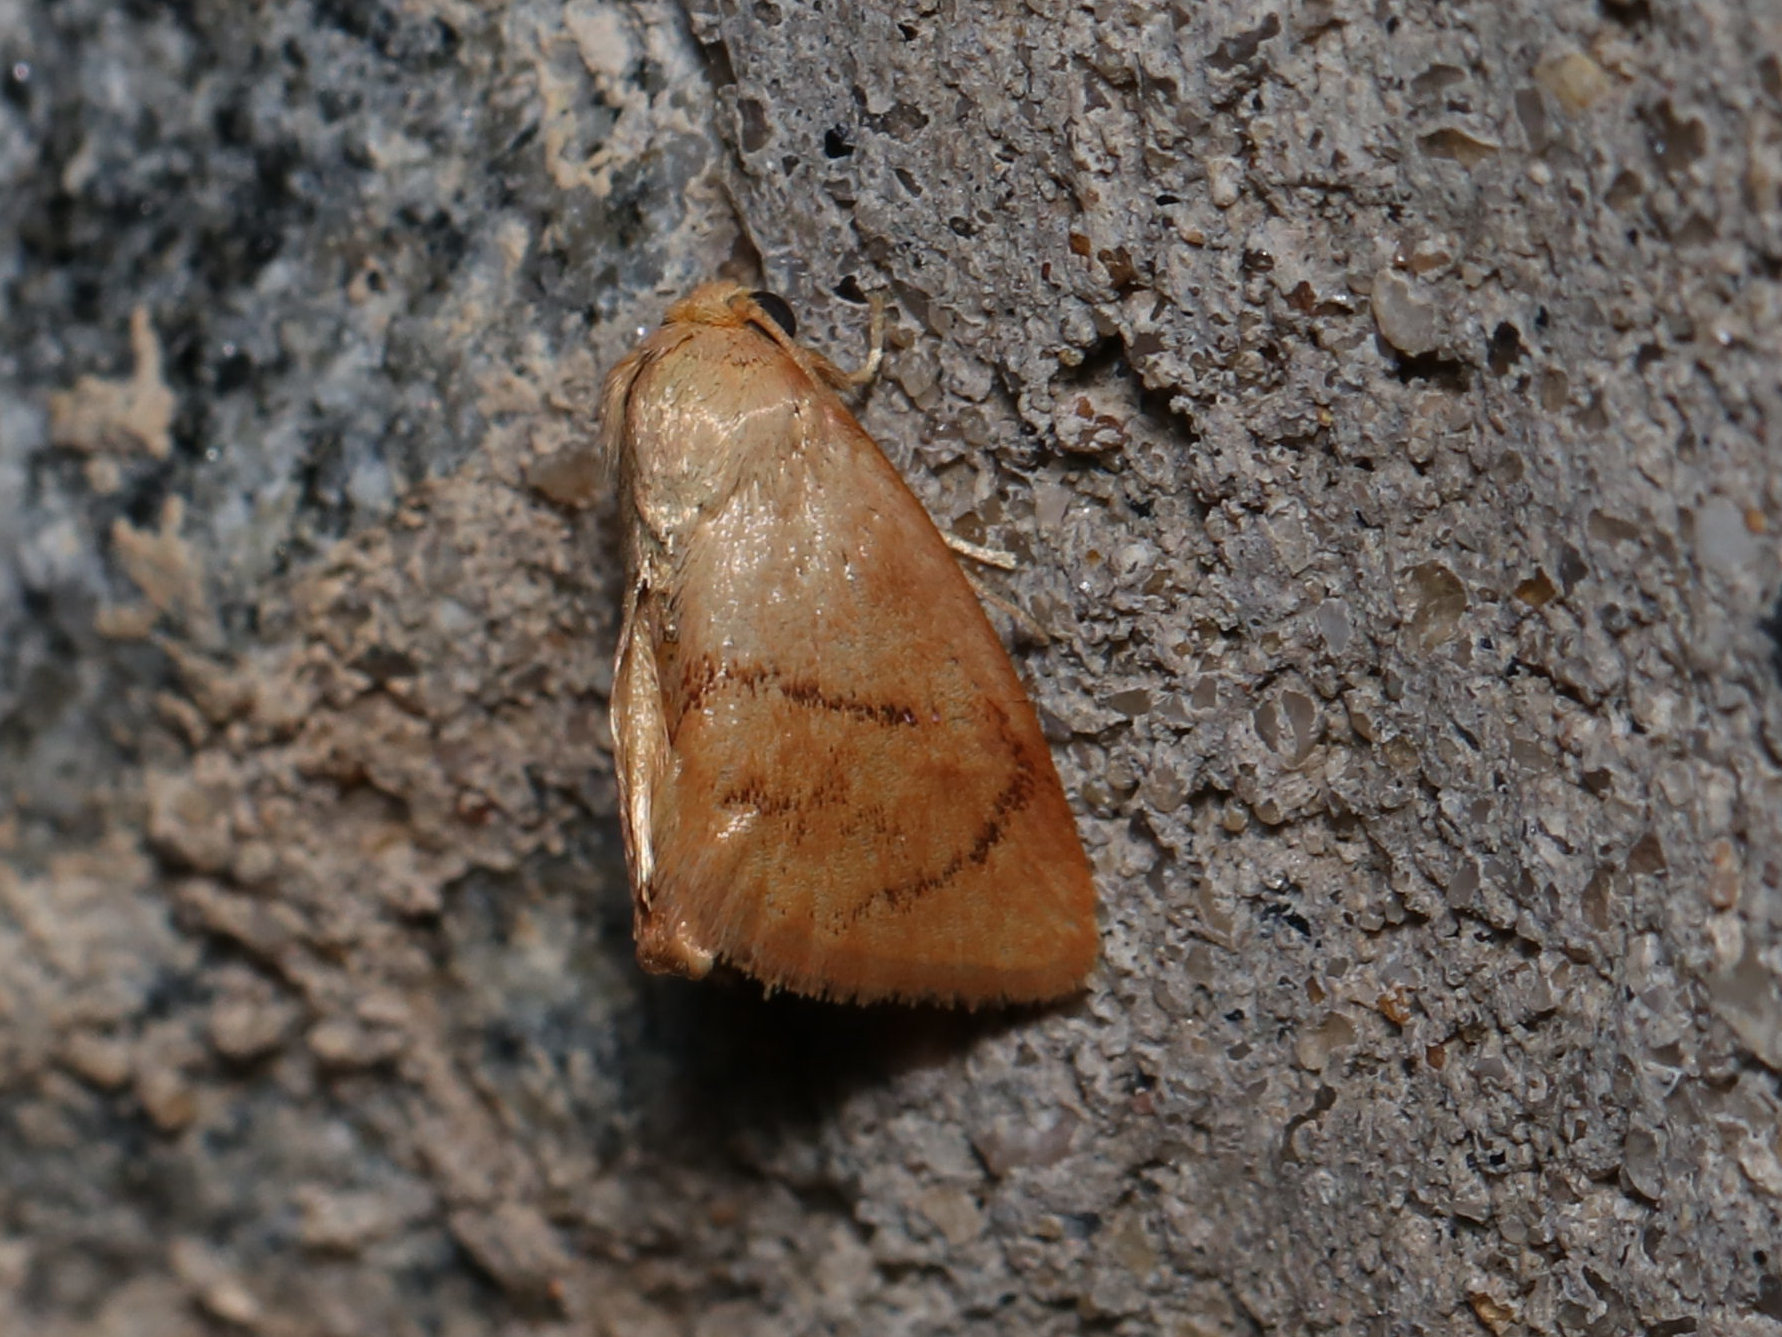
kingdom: Animalia
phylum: Arthropoda
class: Insecta
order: Lepidoptera
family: Limacodidae
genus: Tortricidia
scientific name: Tortricidia flexuosa
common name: Abbreviated button slug moth
